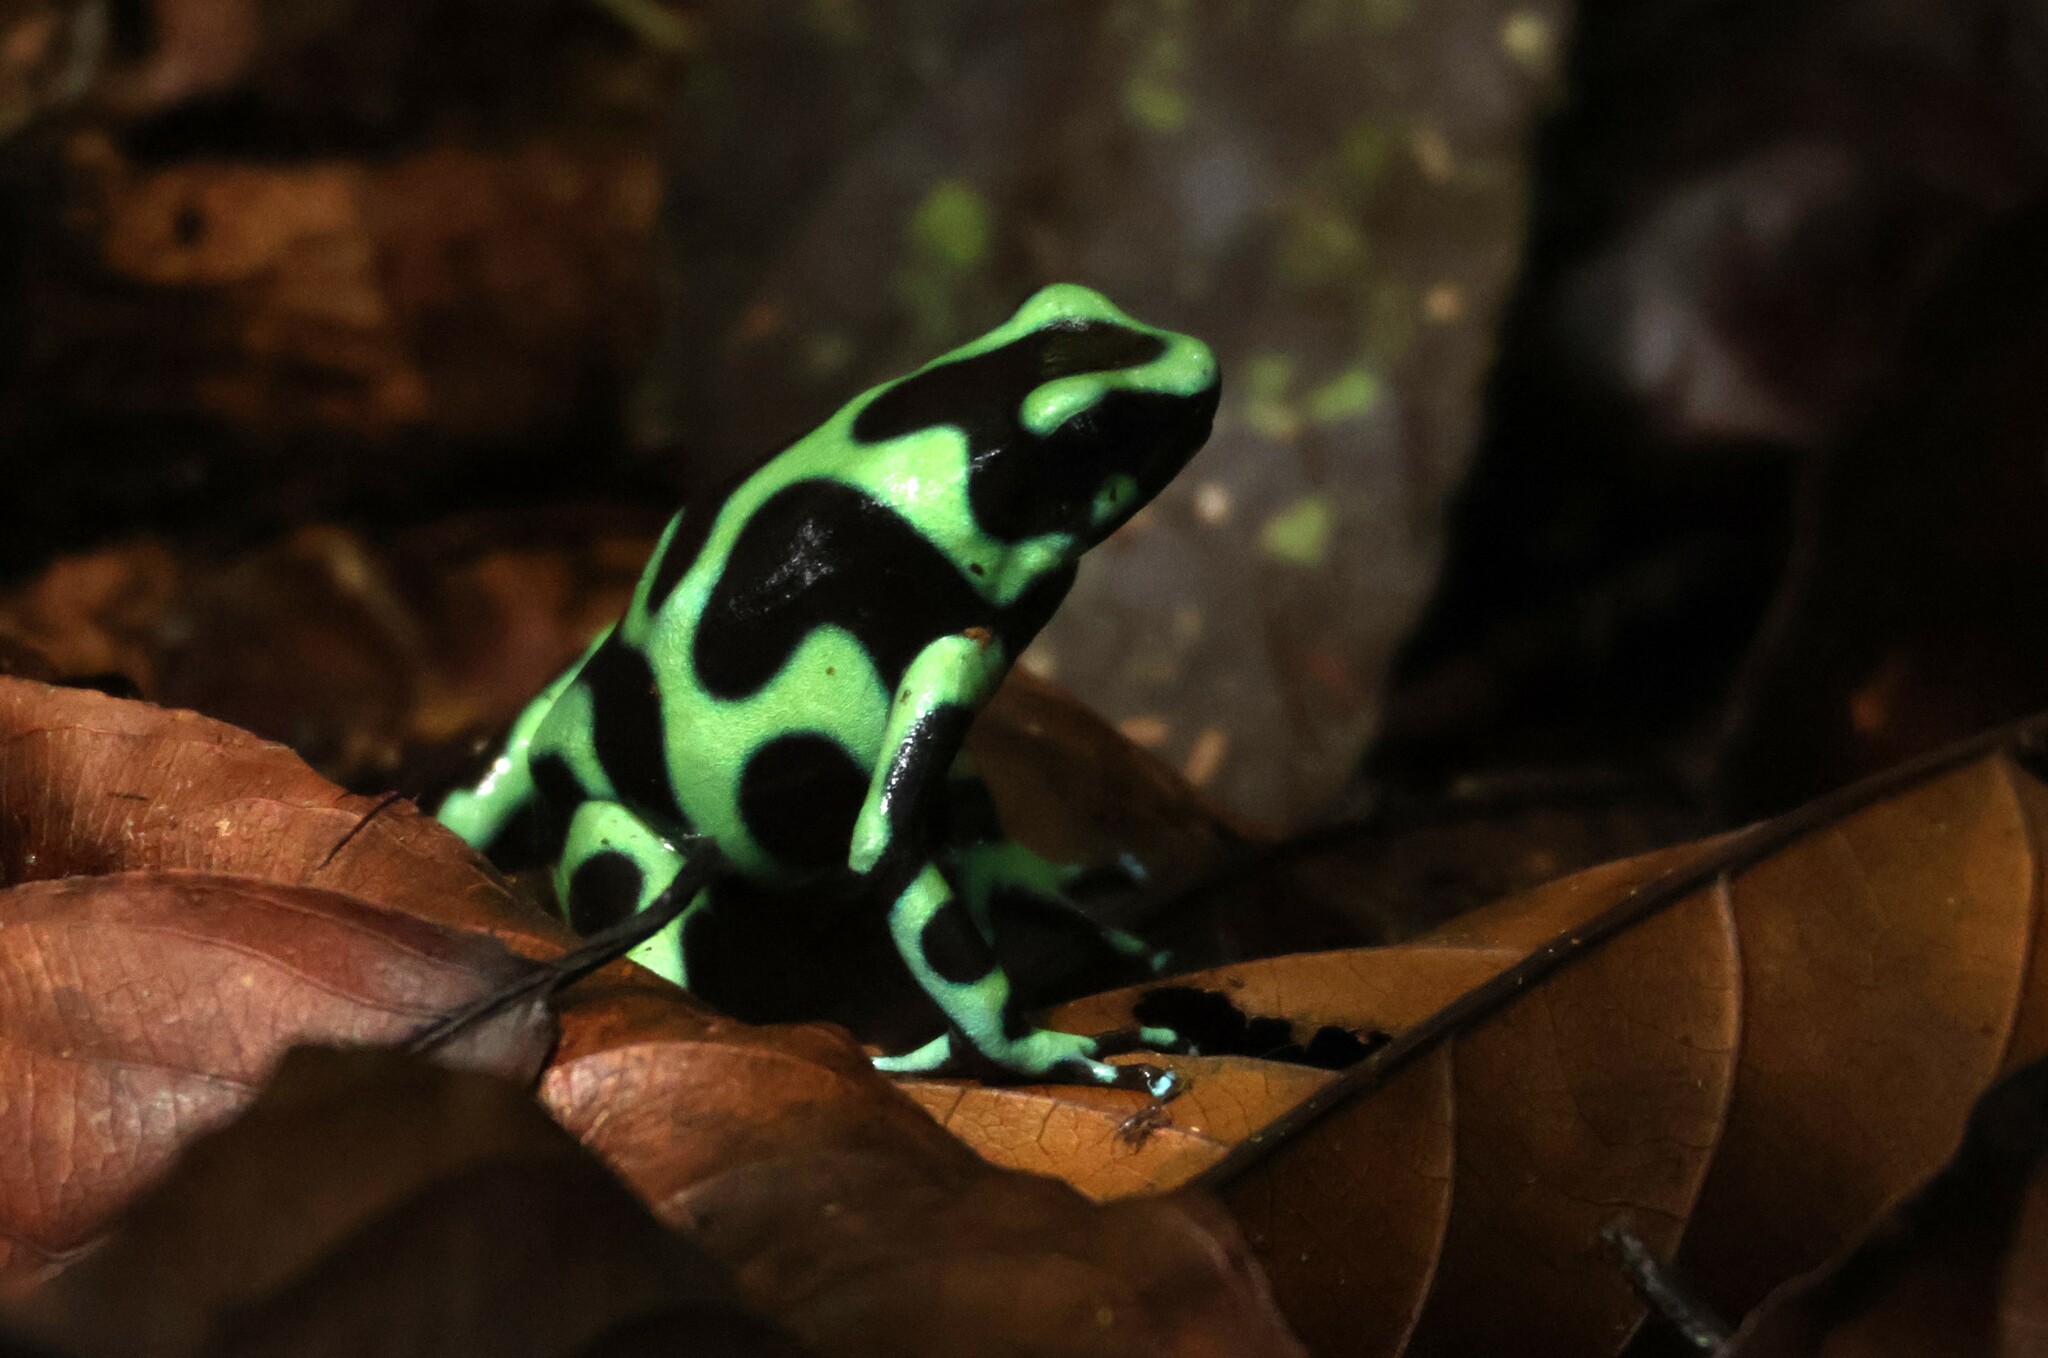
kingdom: Animalia
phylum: Chordata
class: Amphibia
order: Anura
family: Dendrobatidae
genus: Dendrobates
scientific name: Dendrobates auratus
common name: Green and black poison dart frog
